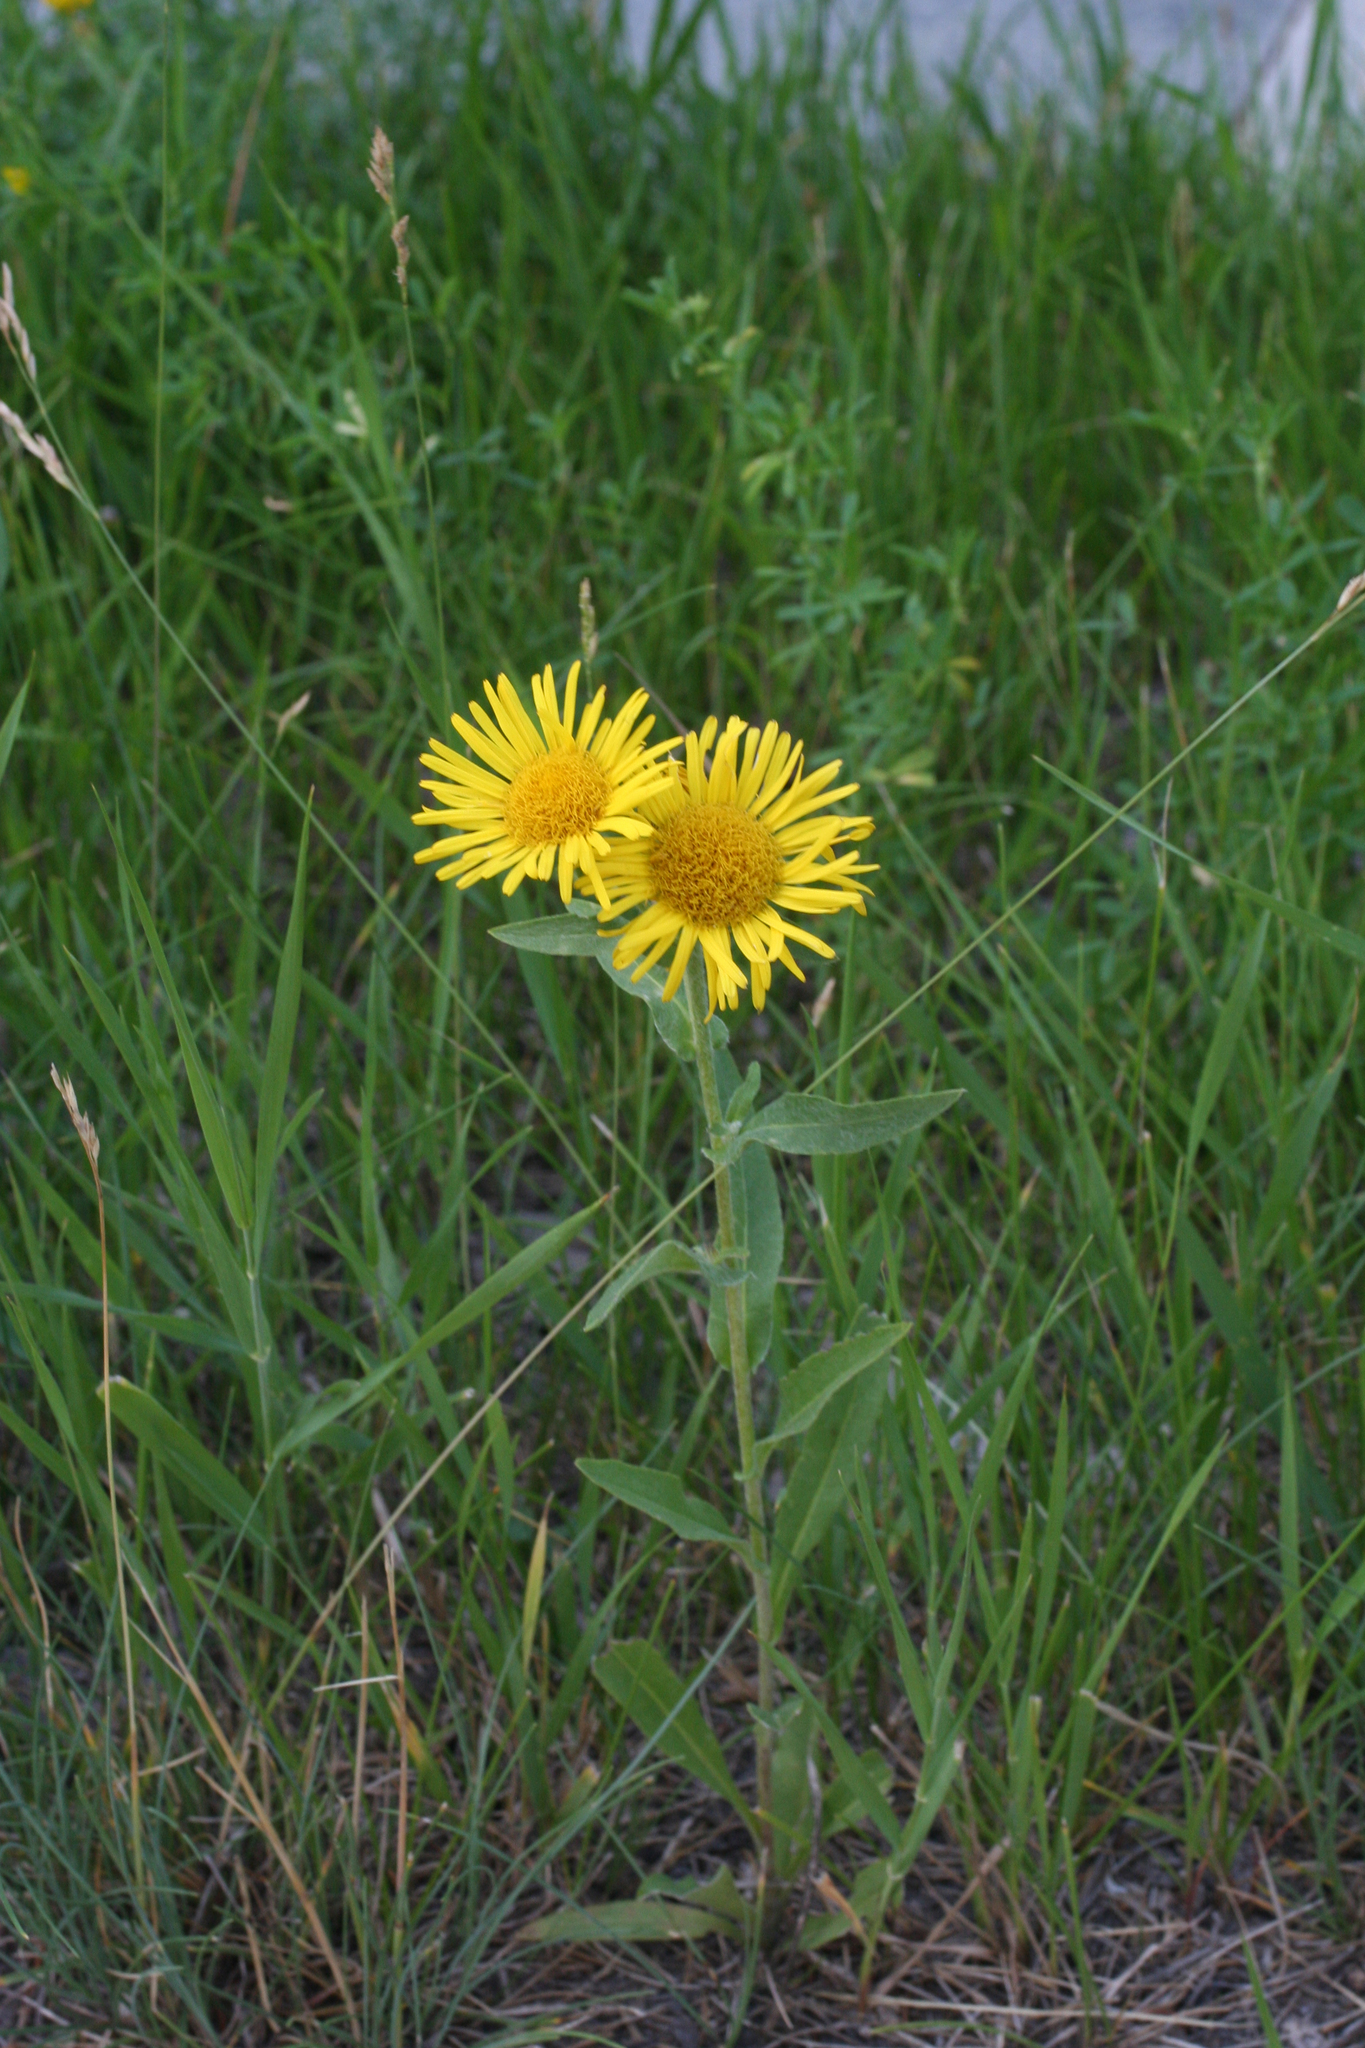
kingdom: Plantae
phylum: Tracheophyta
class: Magnoliopsida
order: Asterales
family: Asteraceae
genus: Pentanema
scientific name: Pentanema britannicum
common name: British elecampane
